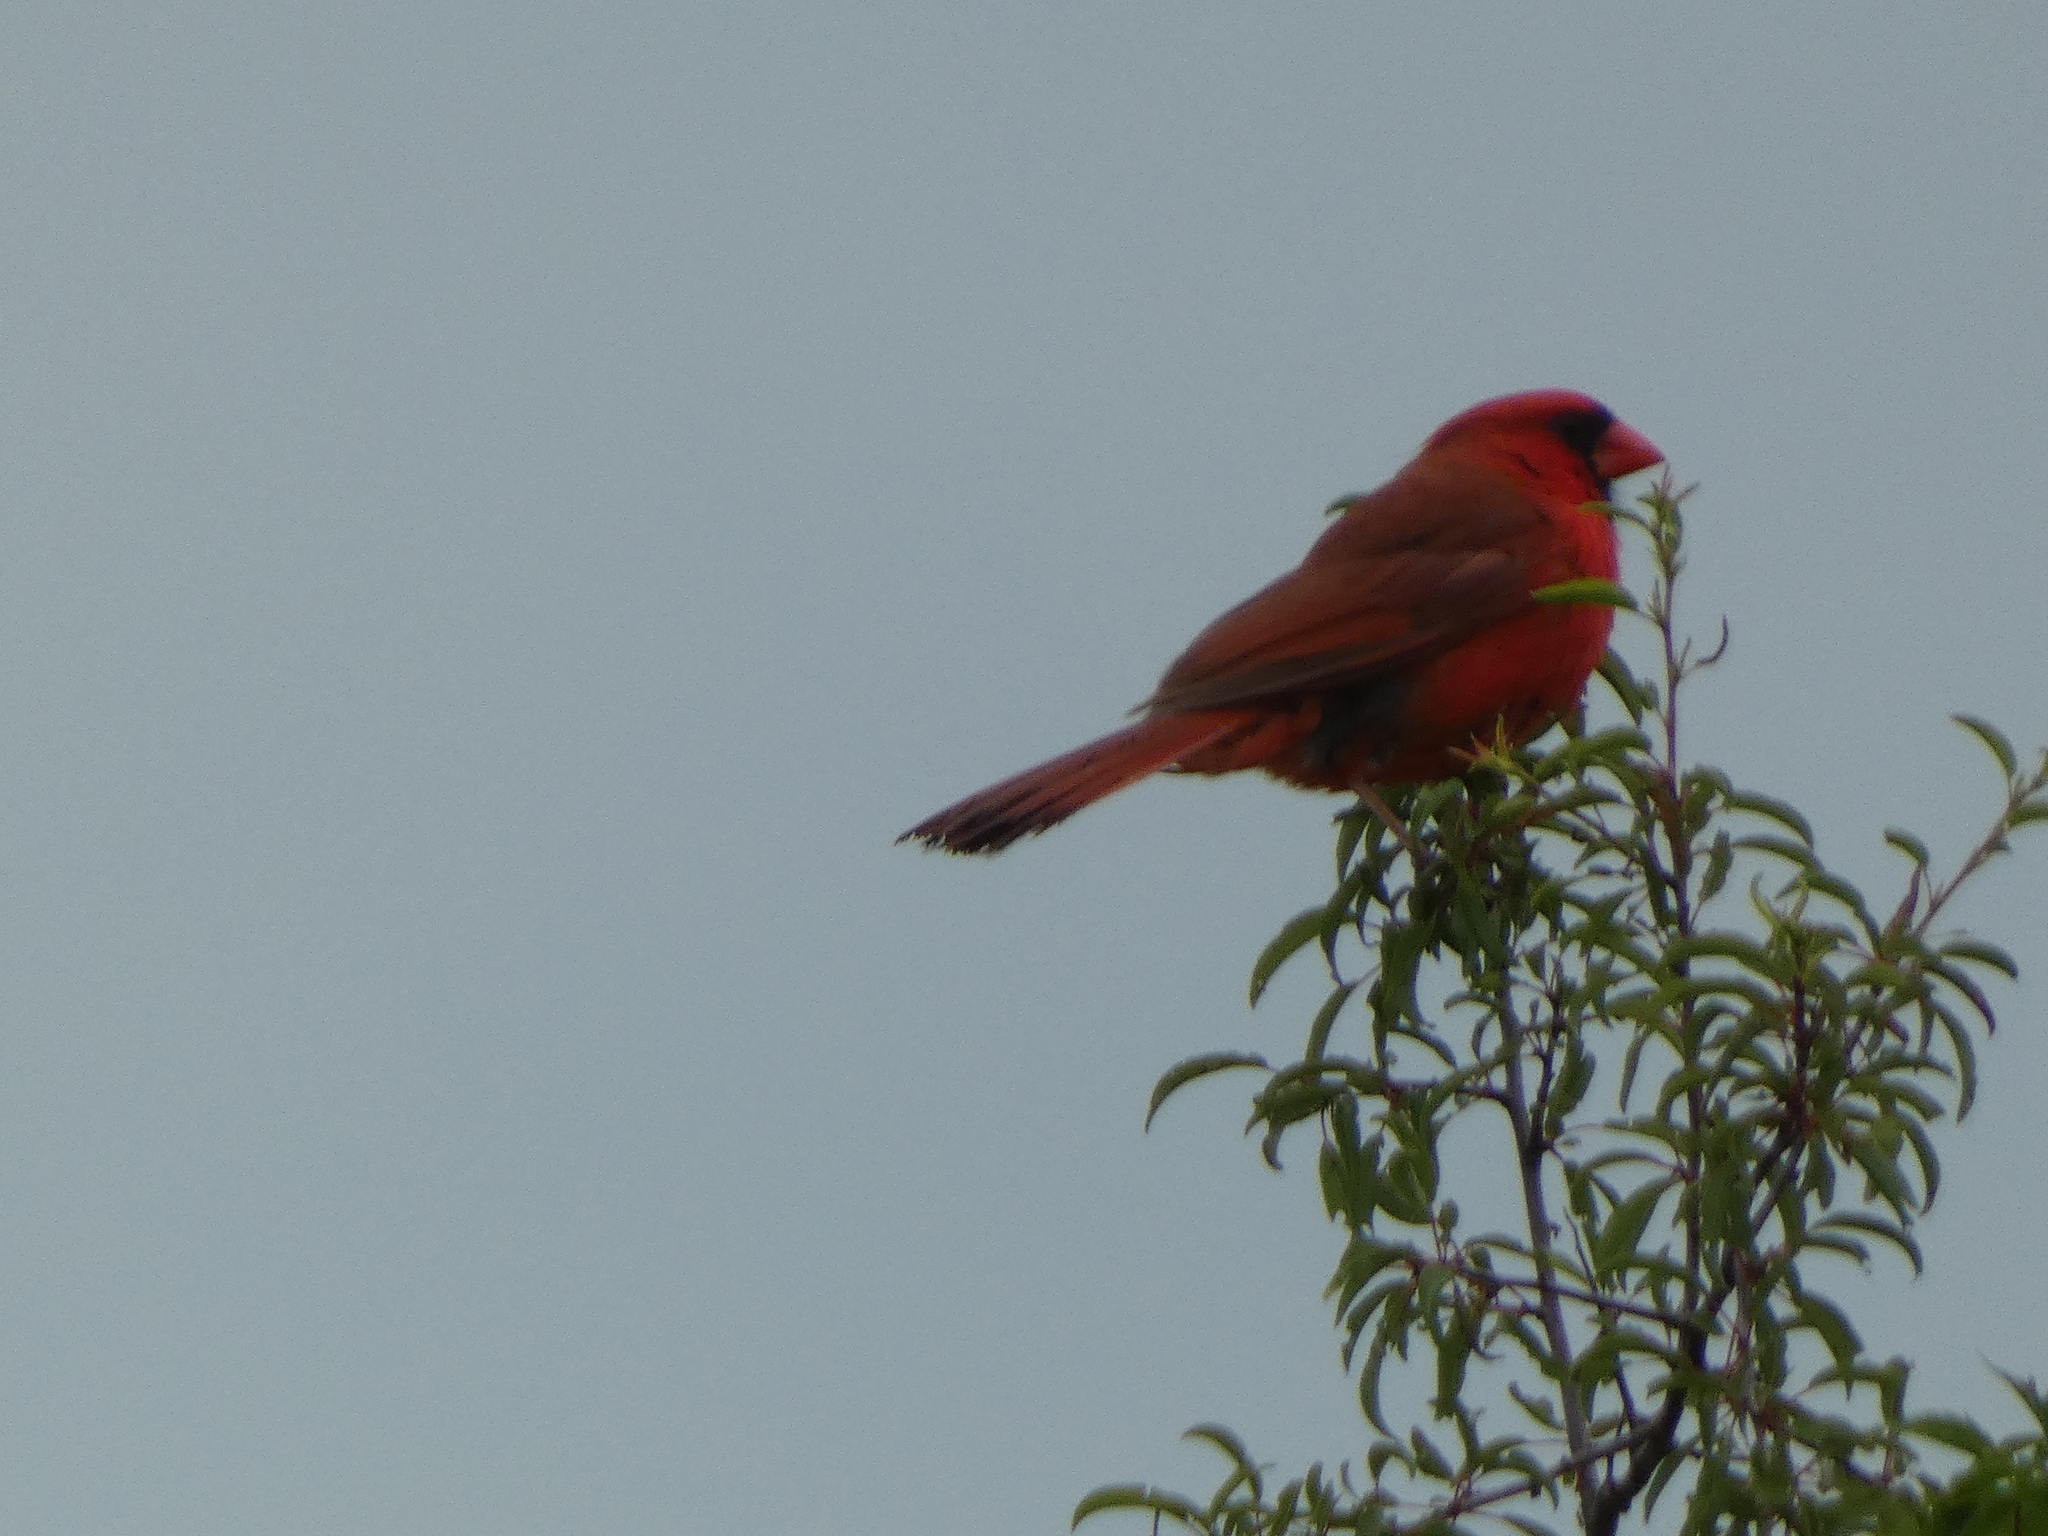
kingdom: Animalia
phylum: Chordata
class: Aves
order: Passeriformes
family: Cardinalidae
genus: Cardinalis
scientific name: Cardinalis cardinalis
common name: Northern cardinal
